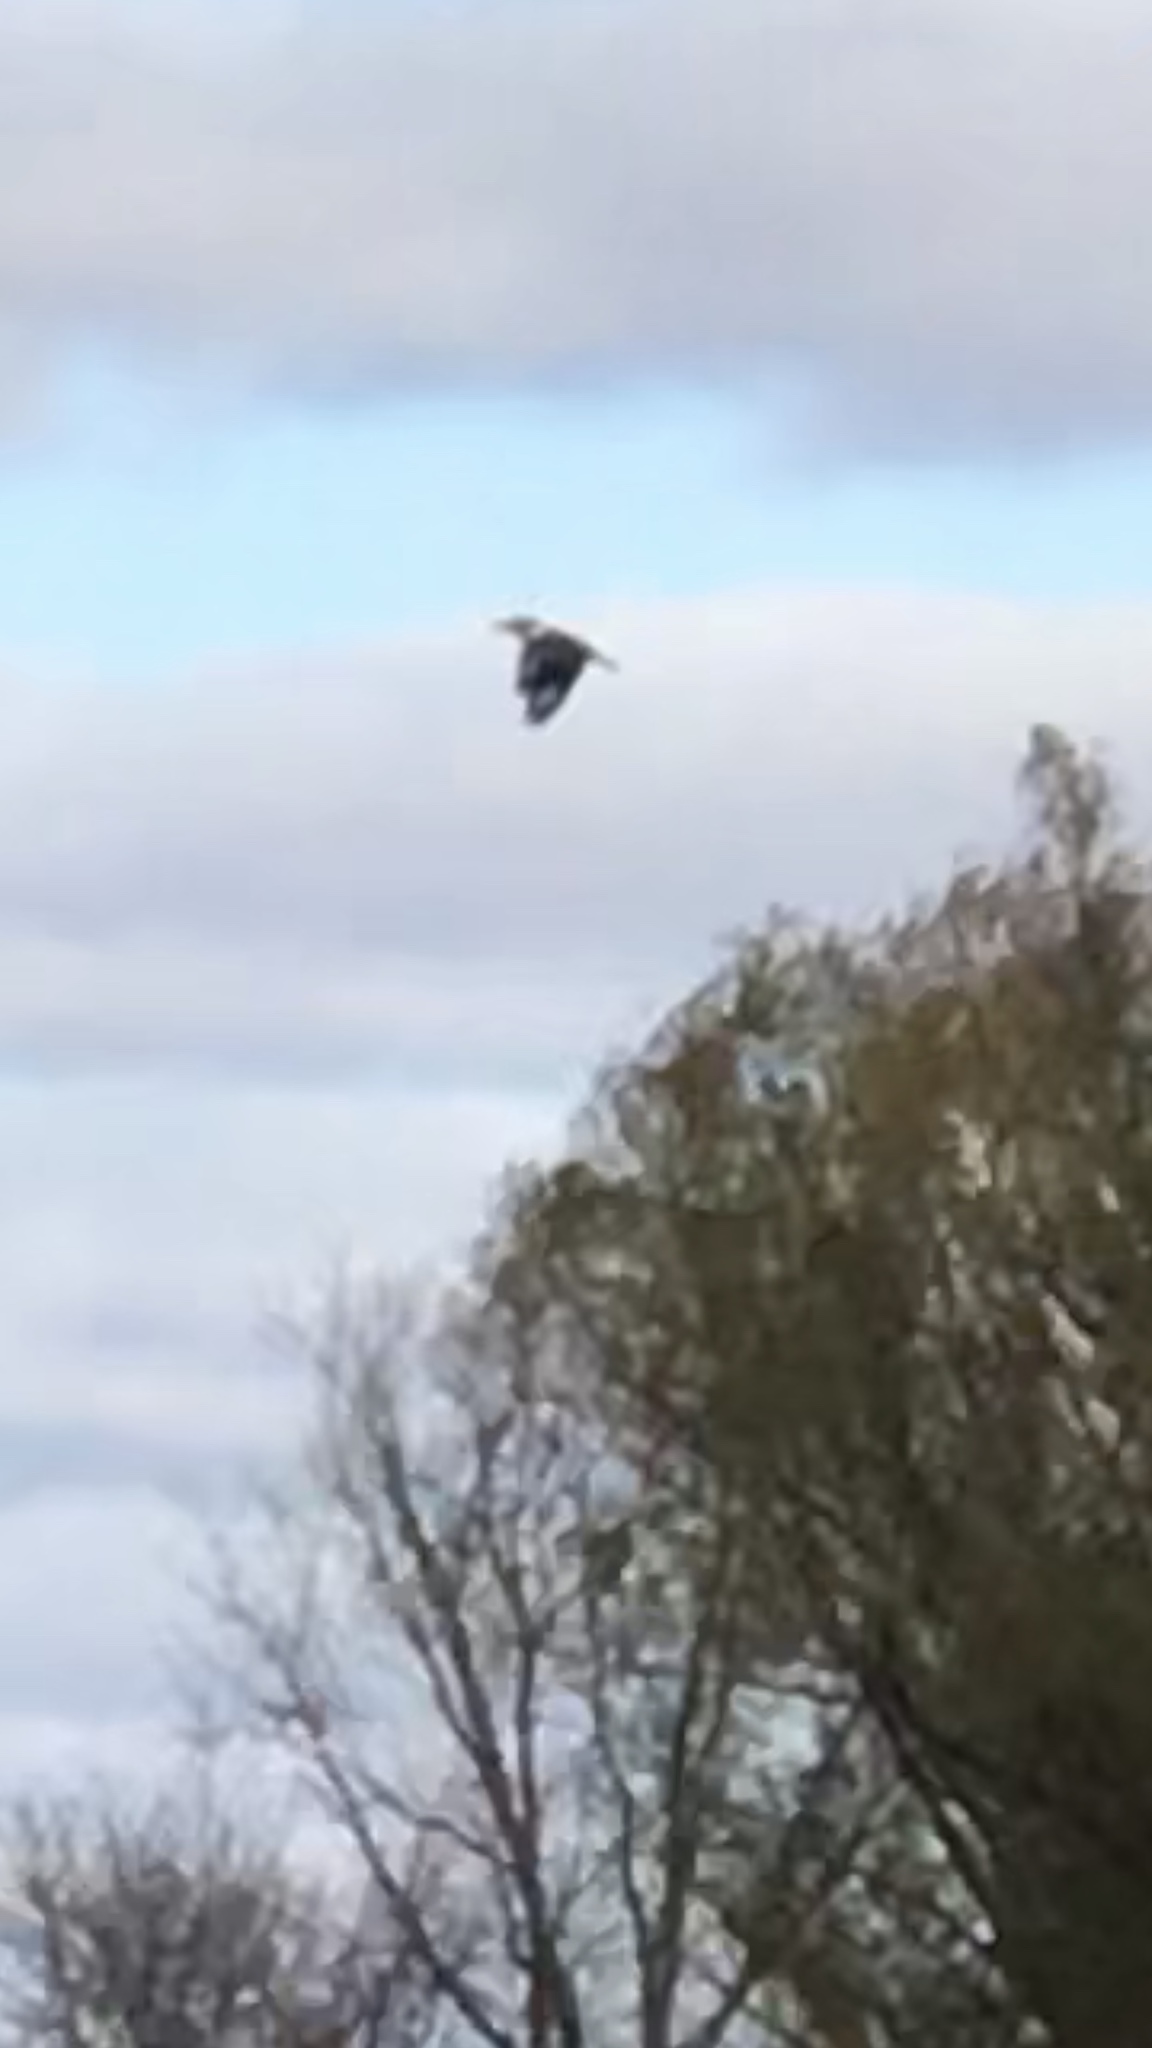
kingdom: Animalia
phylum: Chordata
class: Aves
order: Coraciiformes
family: Alcedinidae
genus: Megaceryle
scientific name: Megaceryle alcyon
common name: Belted kingfisher
